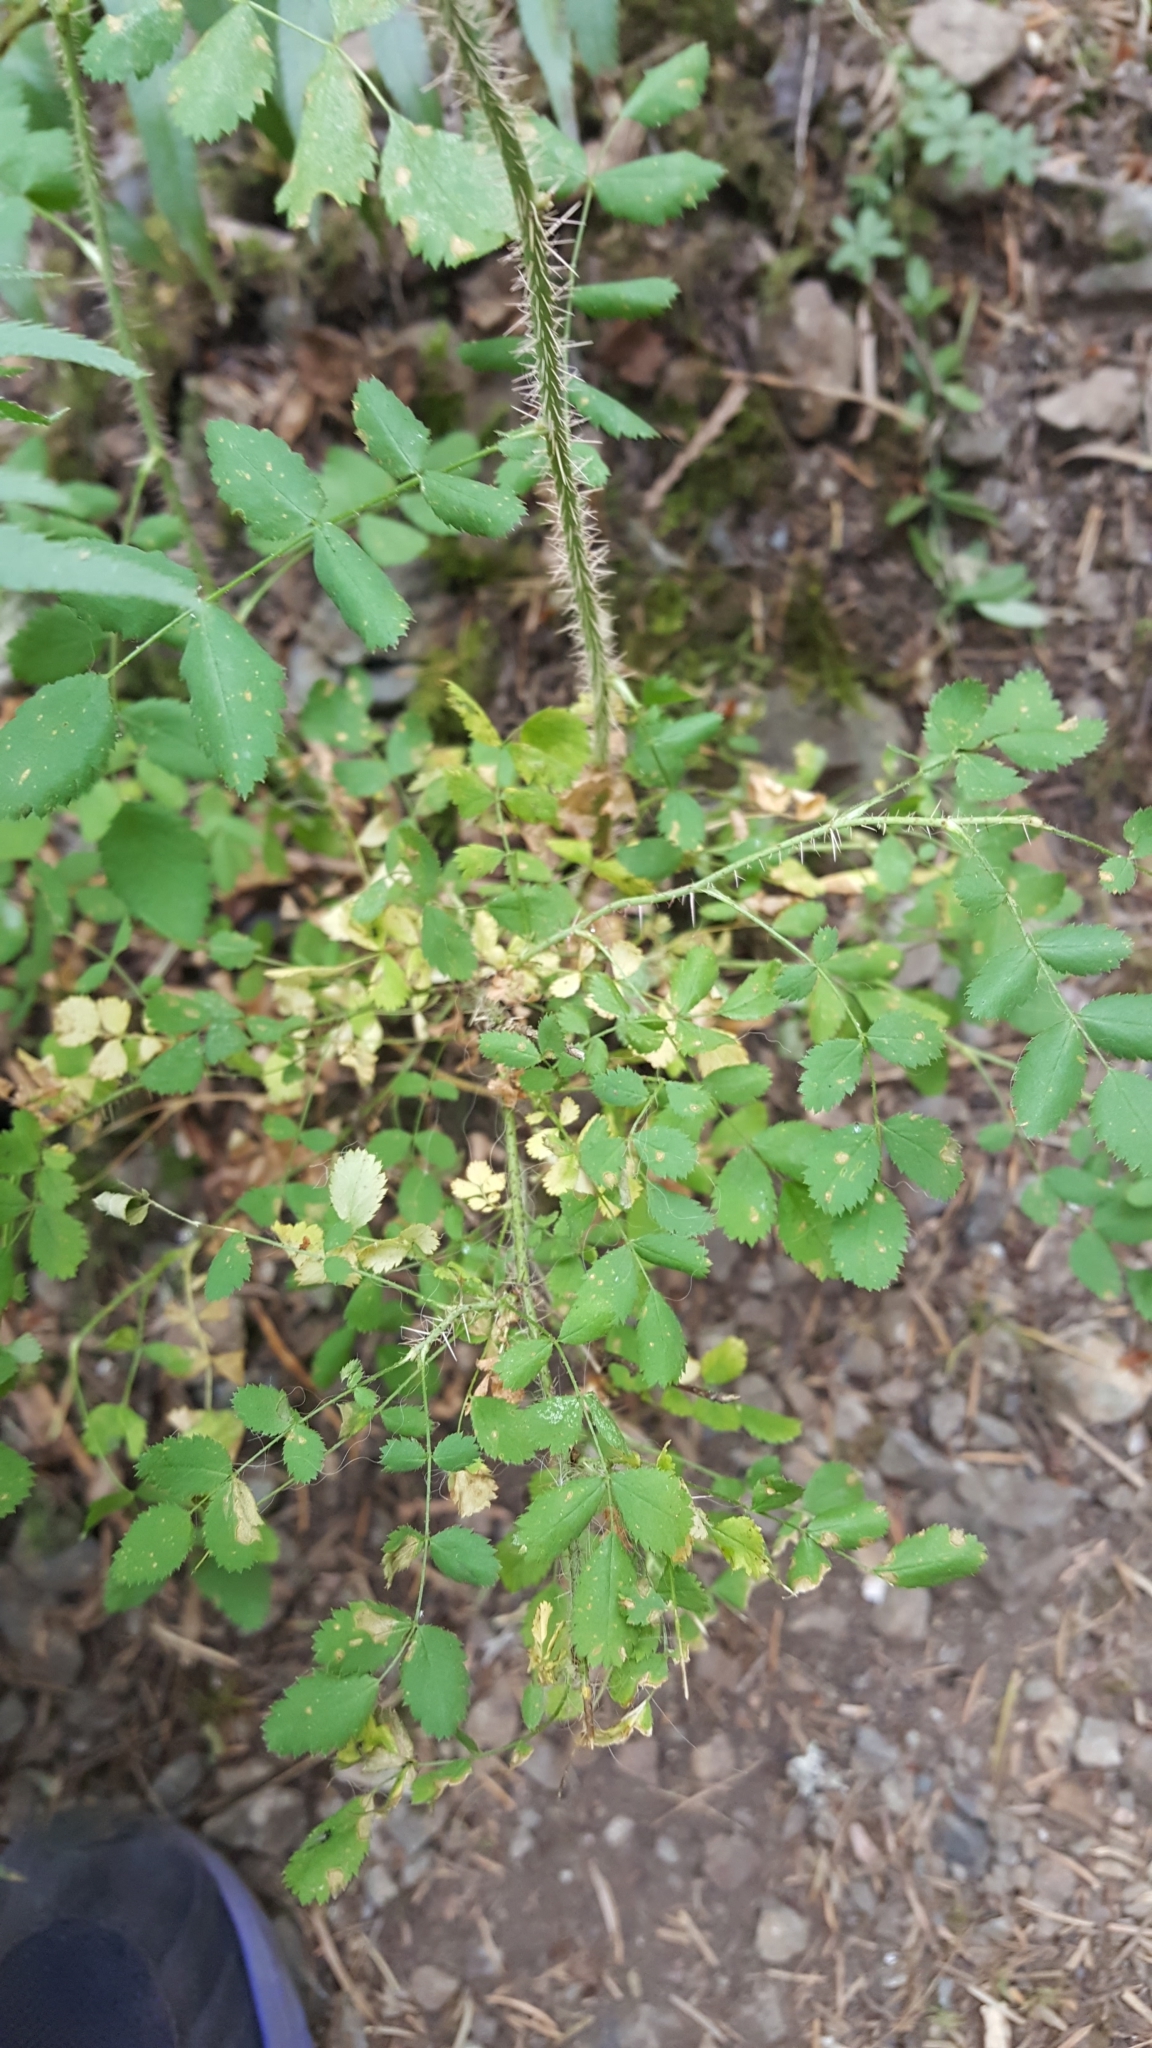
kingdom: Plantae
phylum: Tracheophyta
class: Magnoliopsida
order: Rosales
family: Rosaceae
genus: Rosa
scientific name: Rosa gymnocarpa
